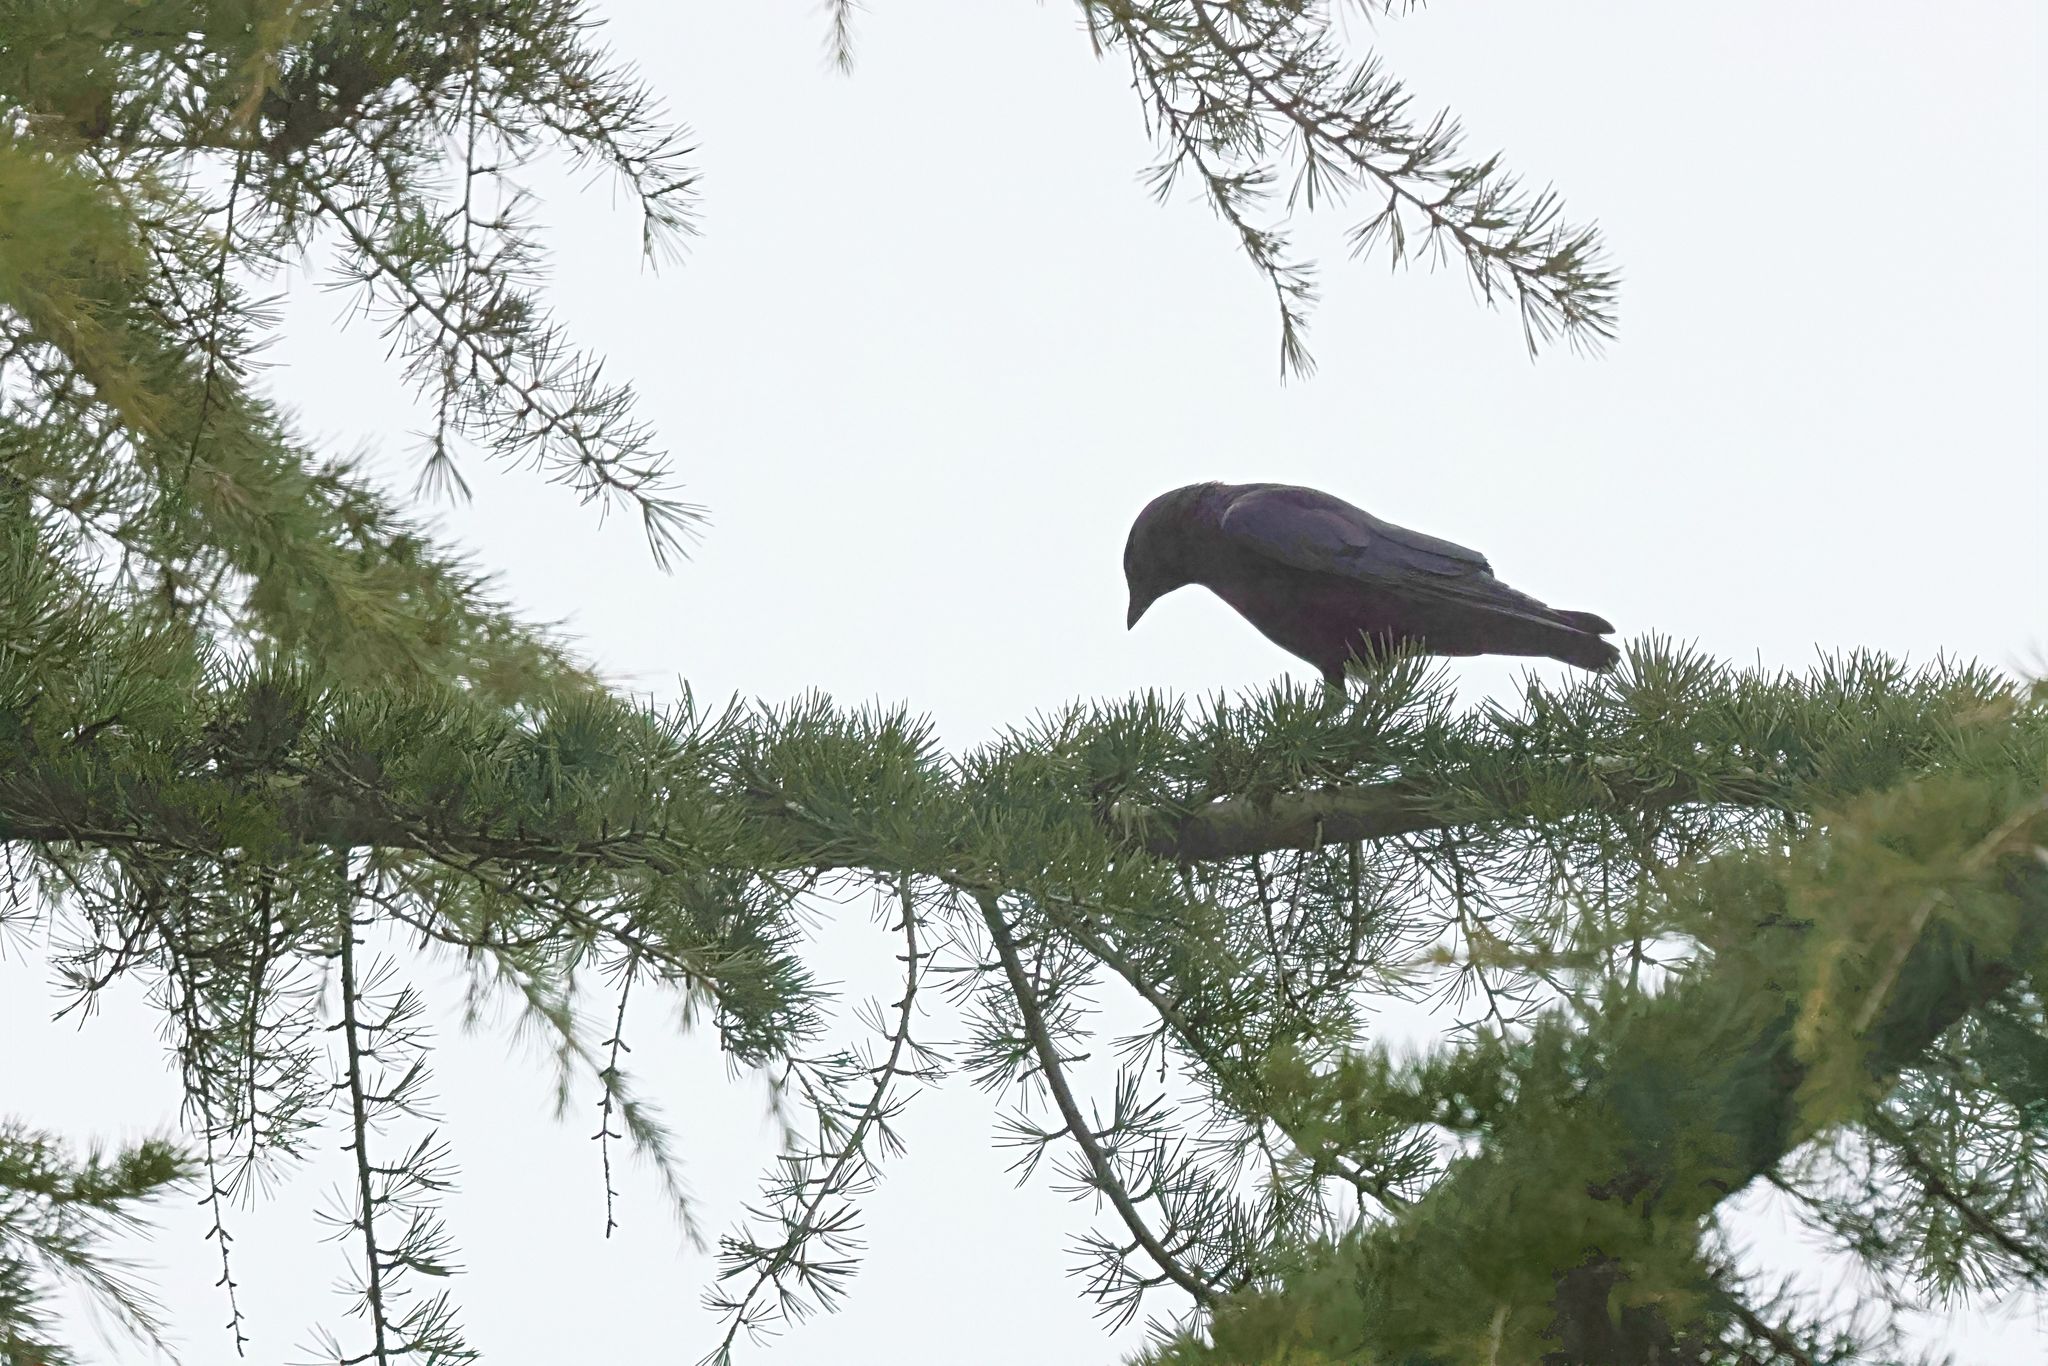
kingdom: Animalia
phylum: Chordata
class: Aves
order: Passeriformes
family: Corvidae
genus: Coloeus
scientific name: Coloeus monedula
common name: Western jackdaw
